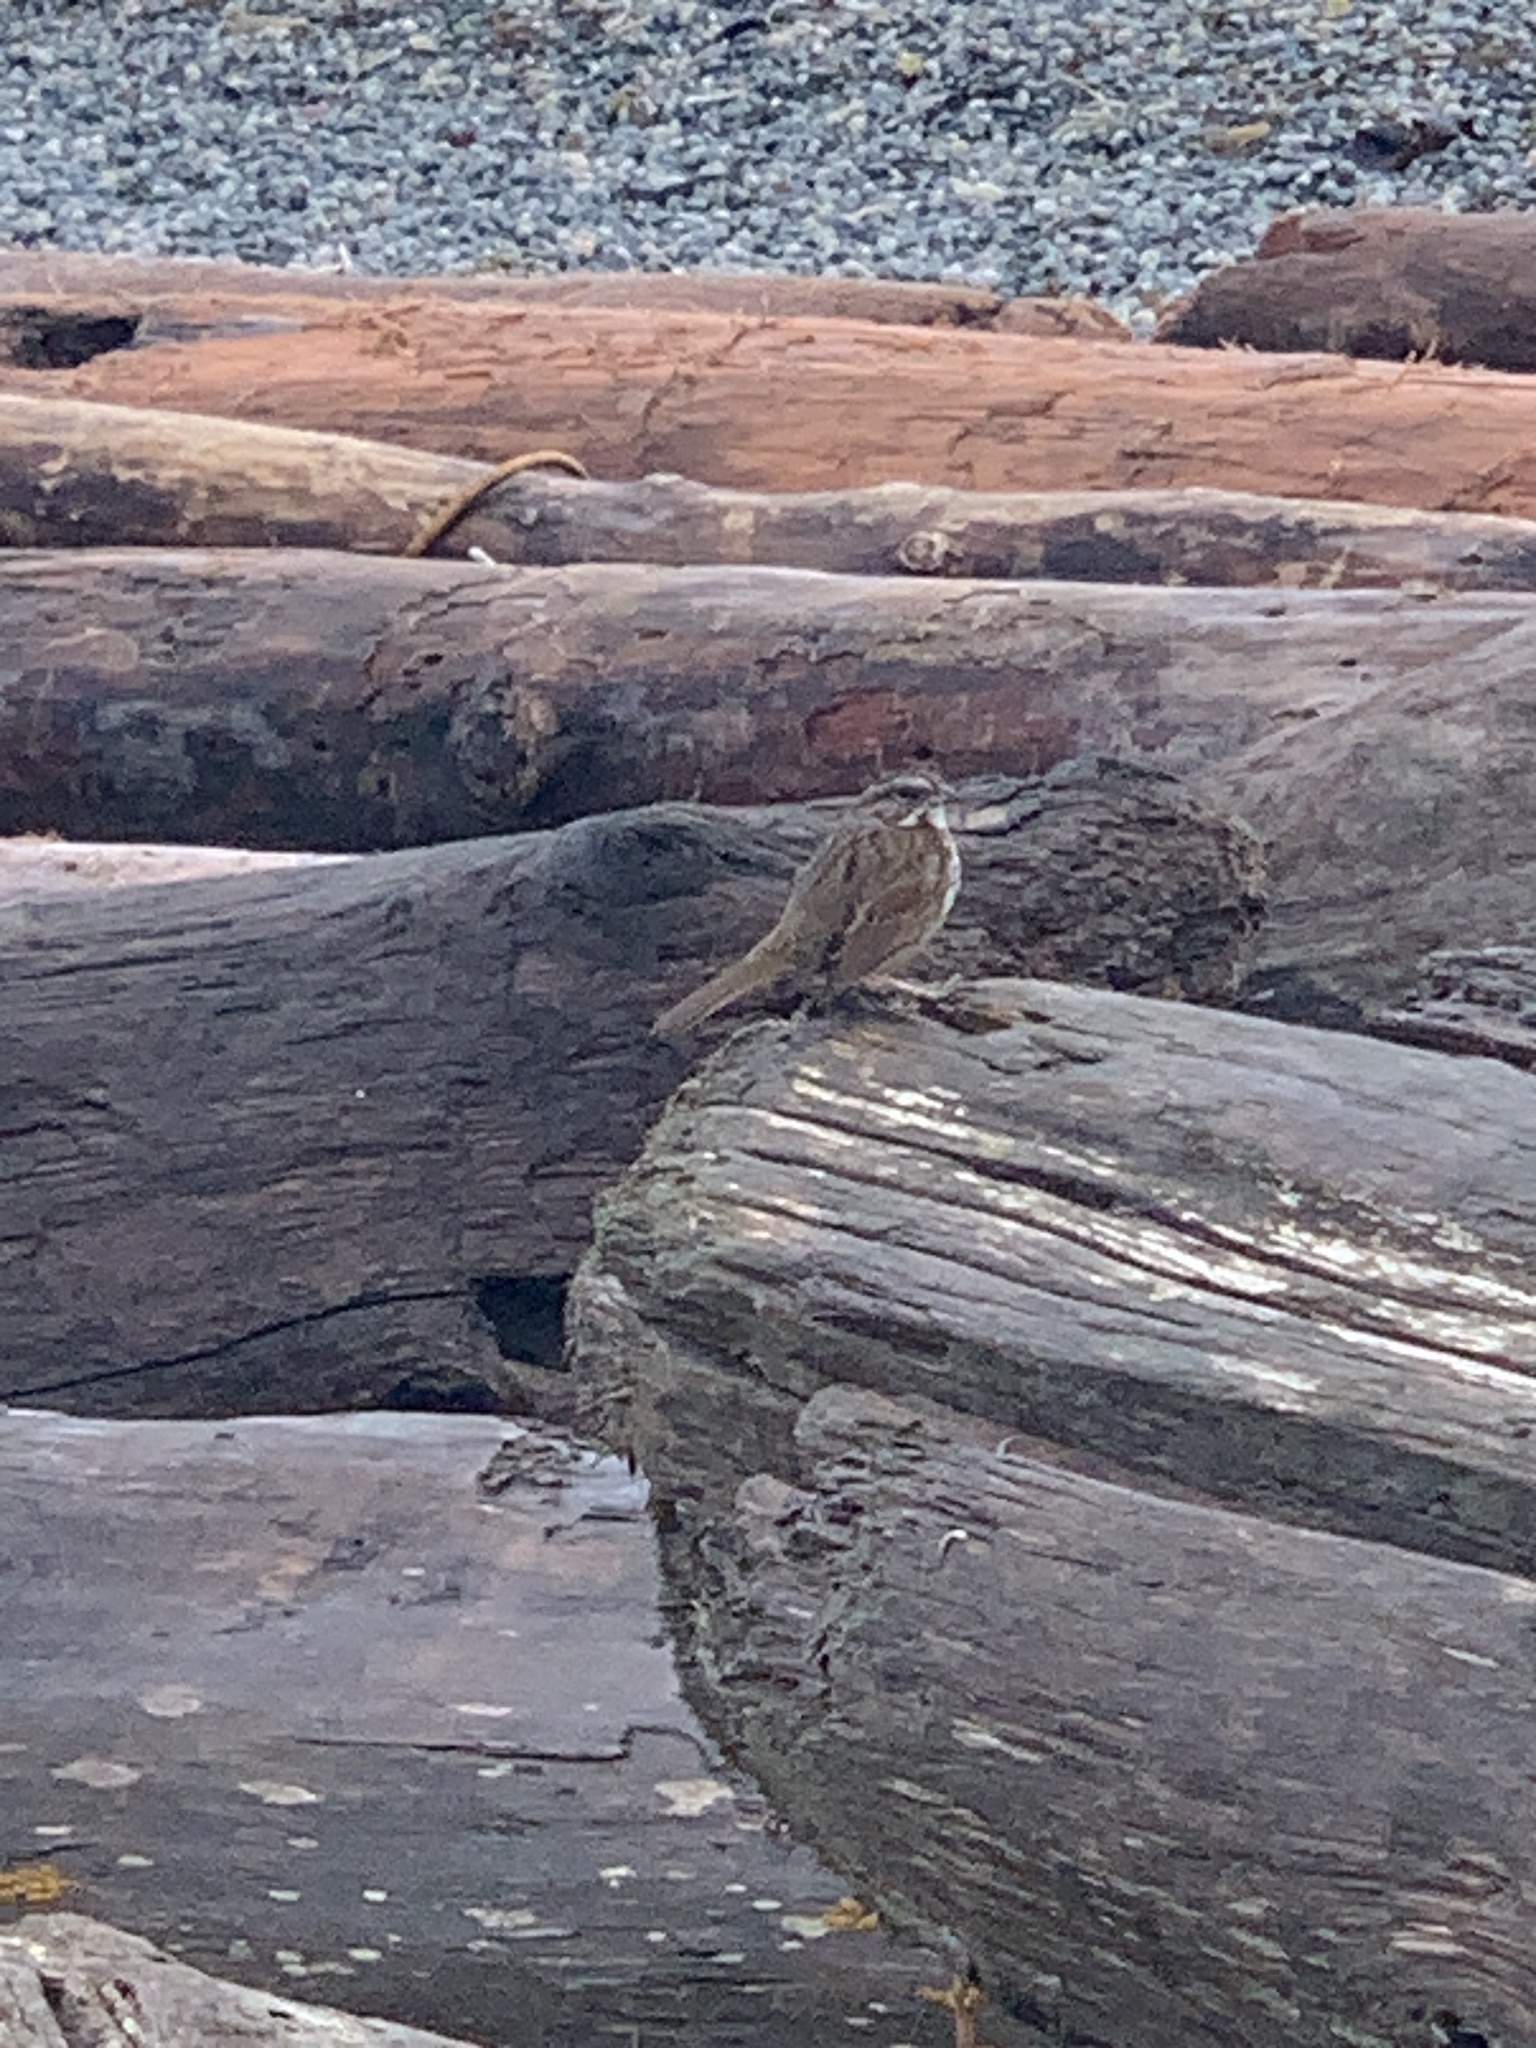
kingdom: Animalia
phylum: Chordata
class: Aves
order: Passeriformes
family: Passerellidae
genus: Melospiza
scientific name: Melospiza melodia
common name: Song sparrow
